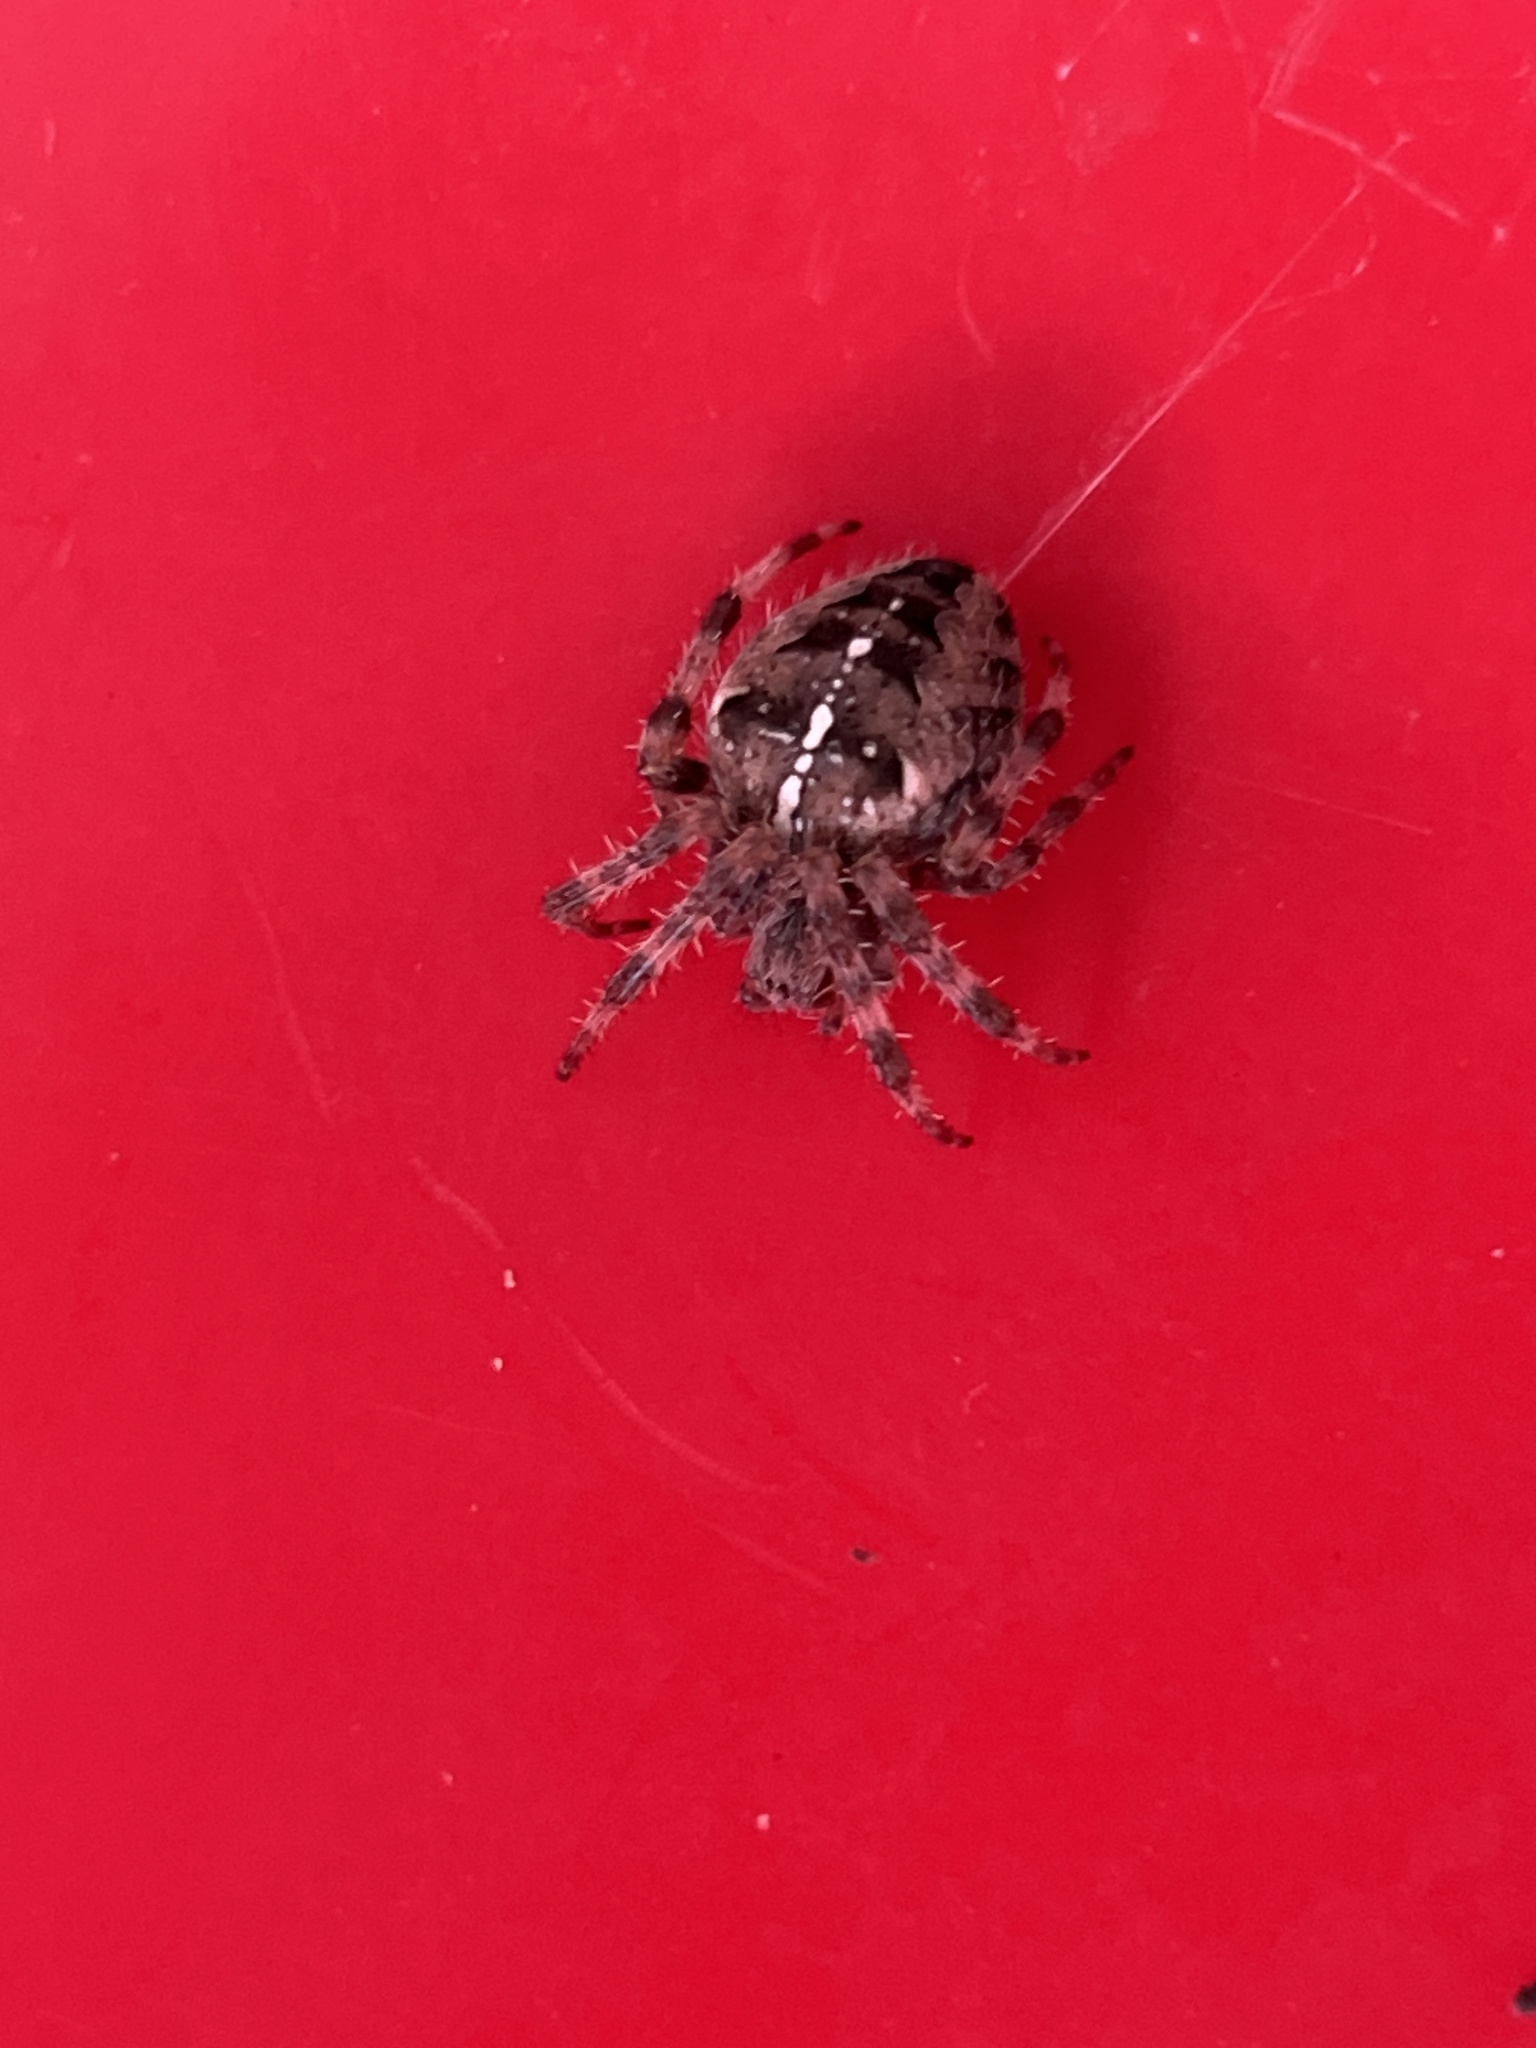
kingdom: Animalia
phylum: Arthropoda
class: Arachnida
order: Araneae
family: Araneidae
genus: Araneus
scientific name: Araneus diadematus
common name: Cross orbweaver
